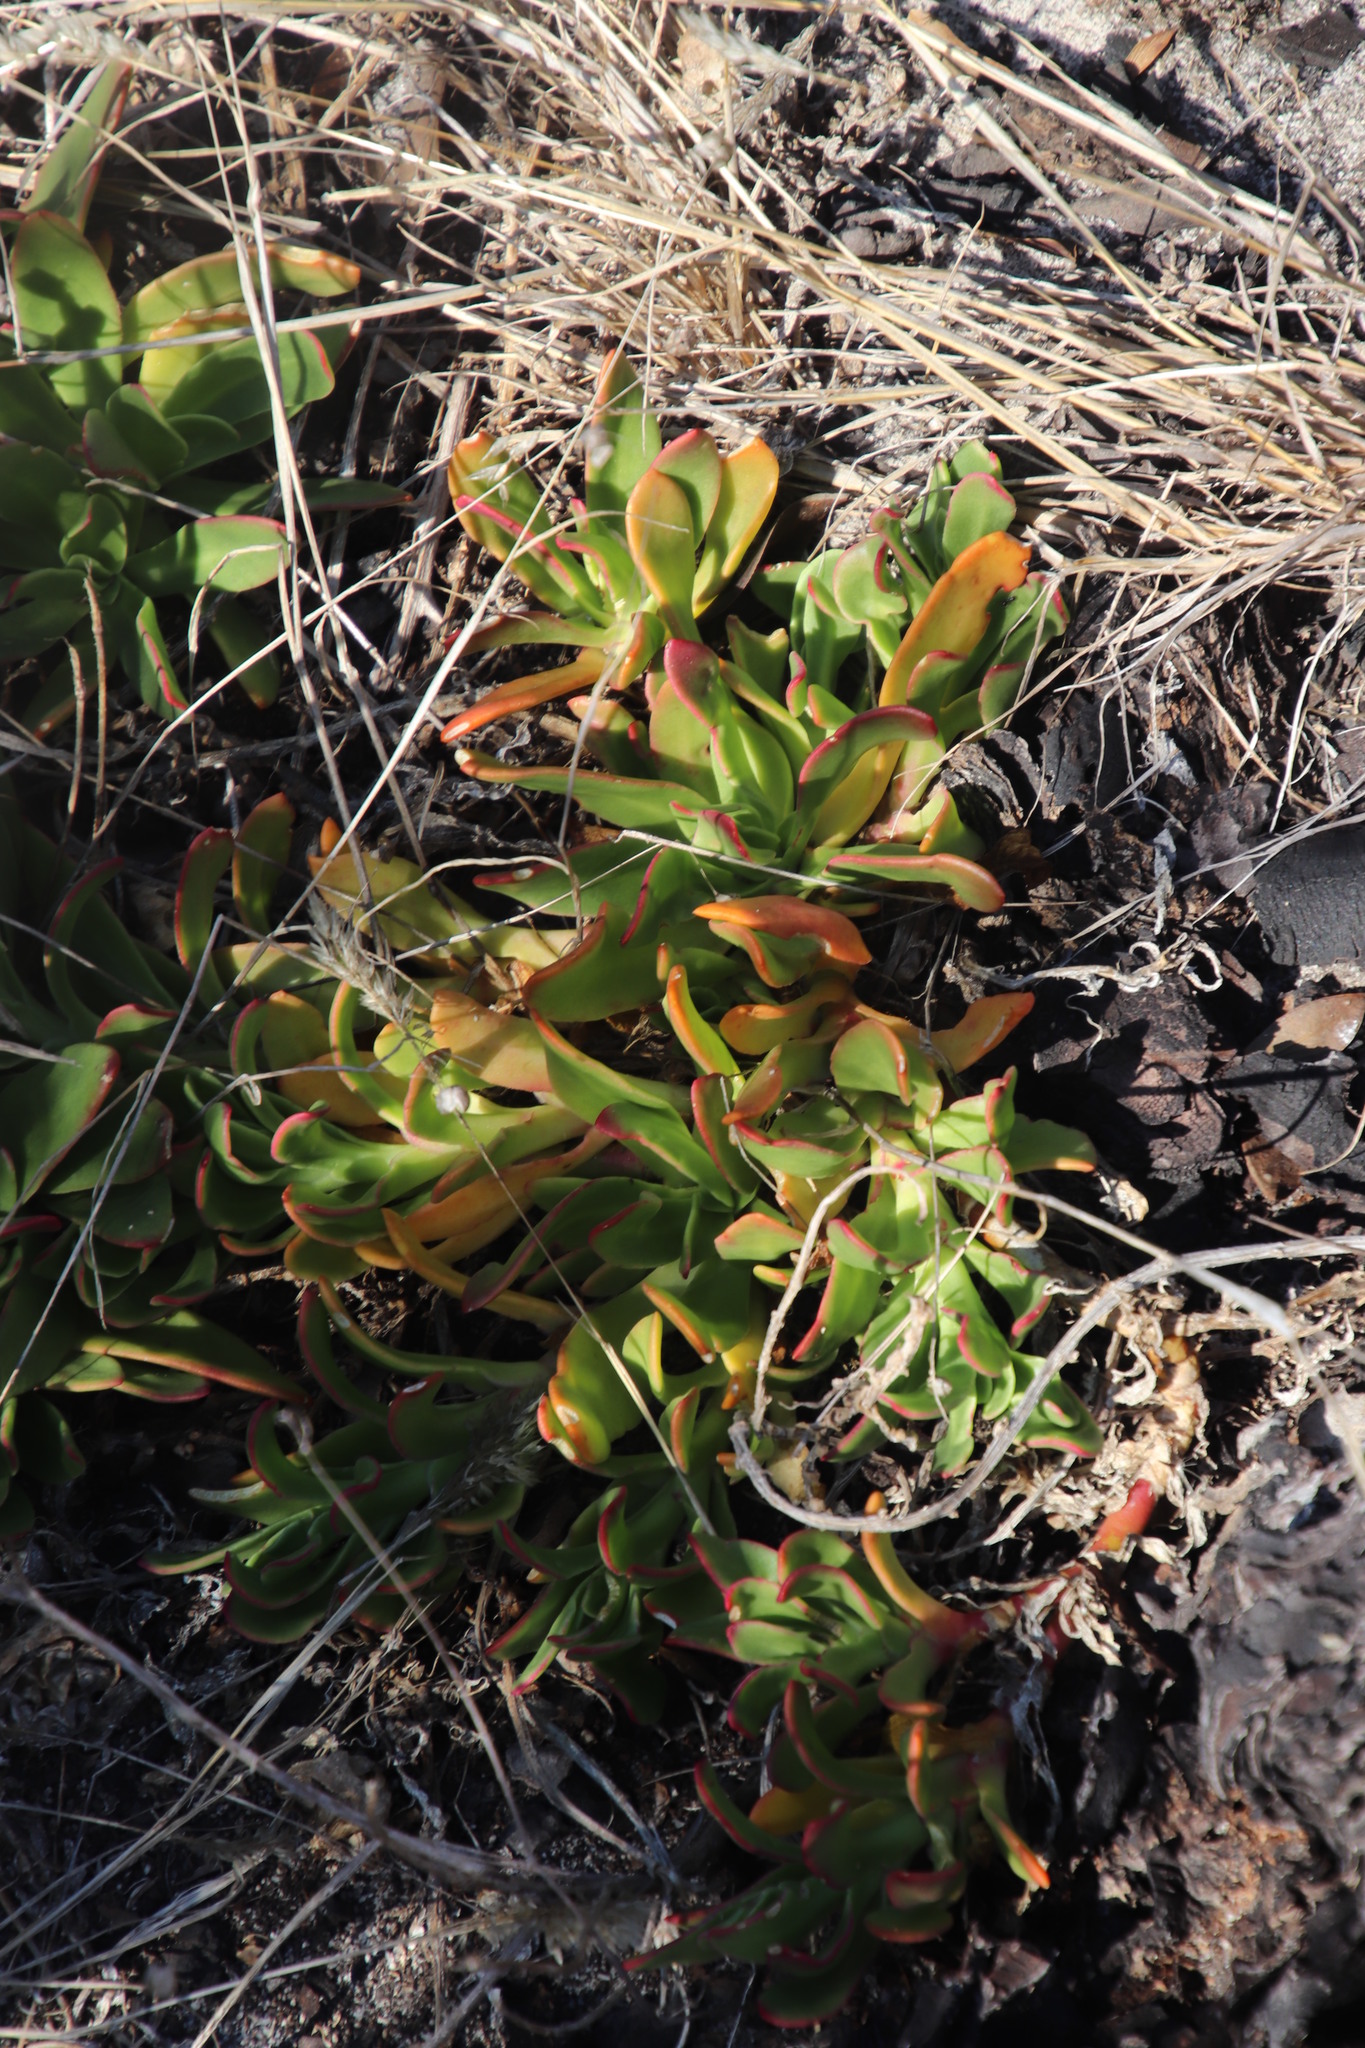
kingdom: Plantae
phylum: Tracheophyta
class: Magnoliopsida
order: Caryophyllales
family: Aizoaceae
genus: Skiatophytum
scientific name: Skiatophytum tripolium
